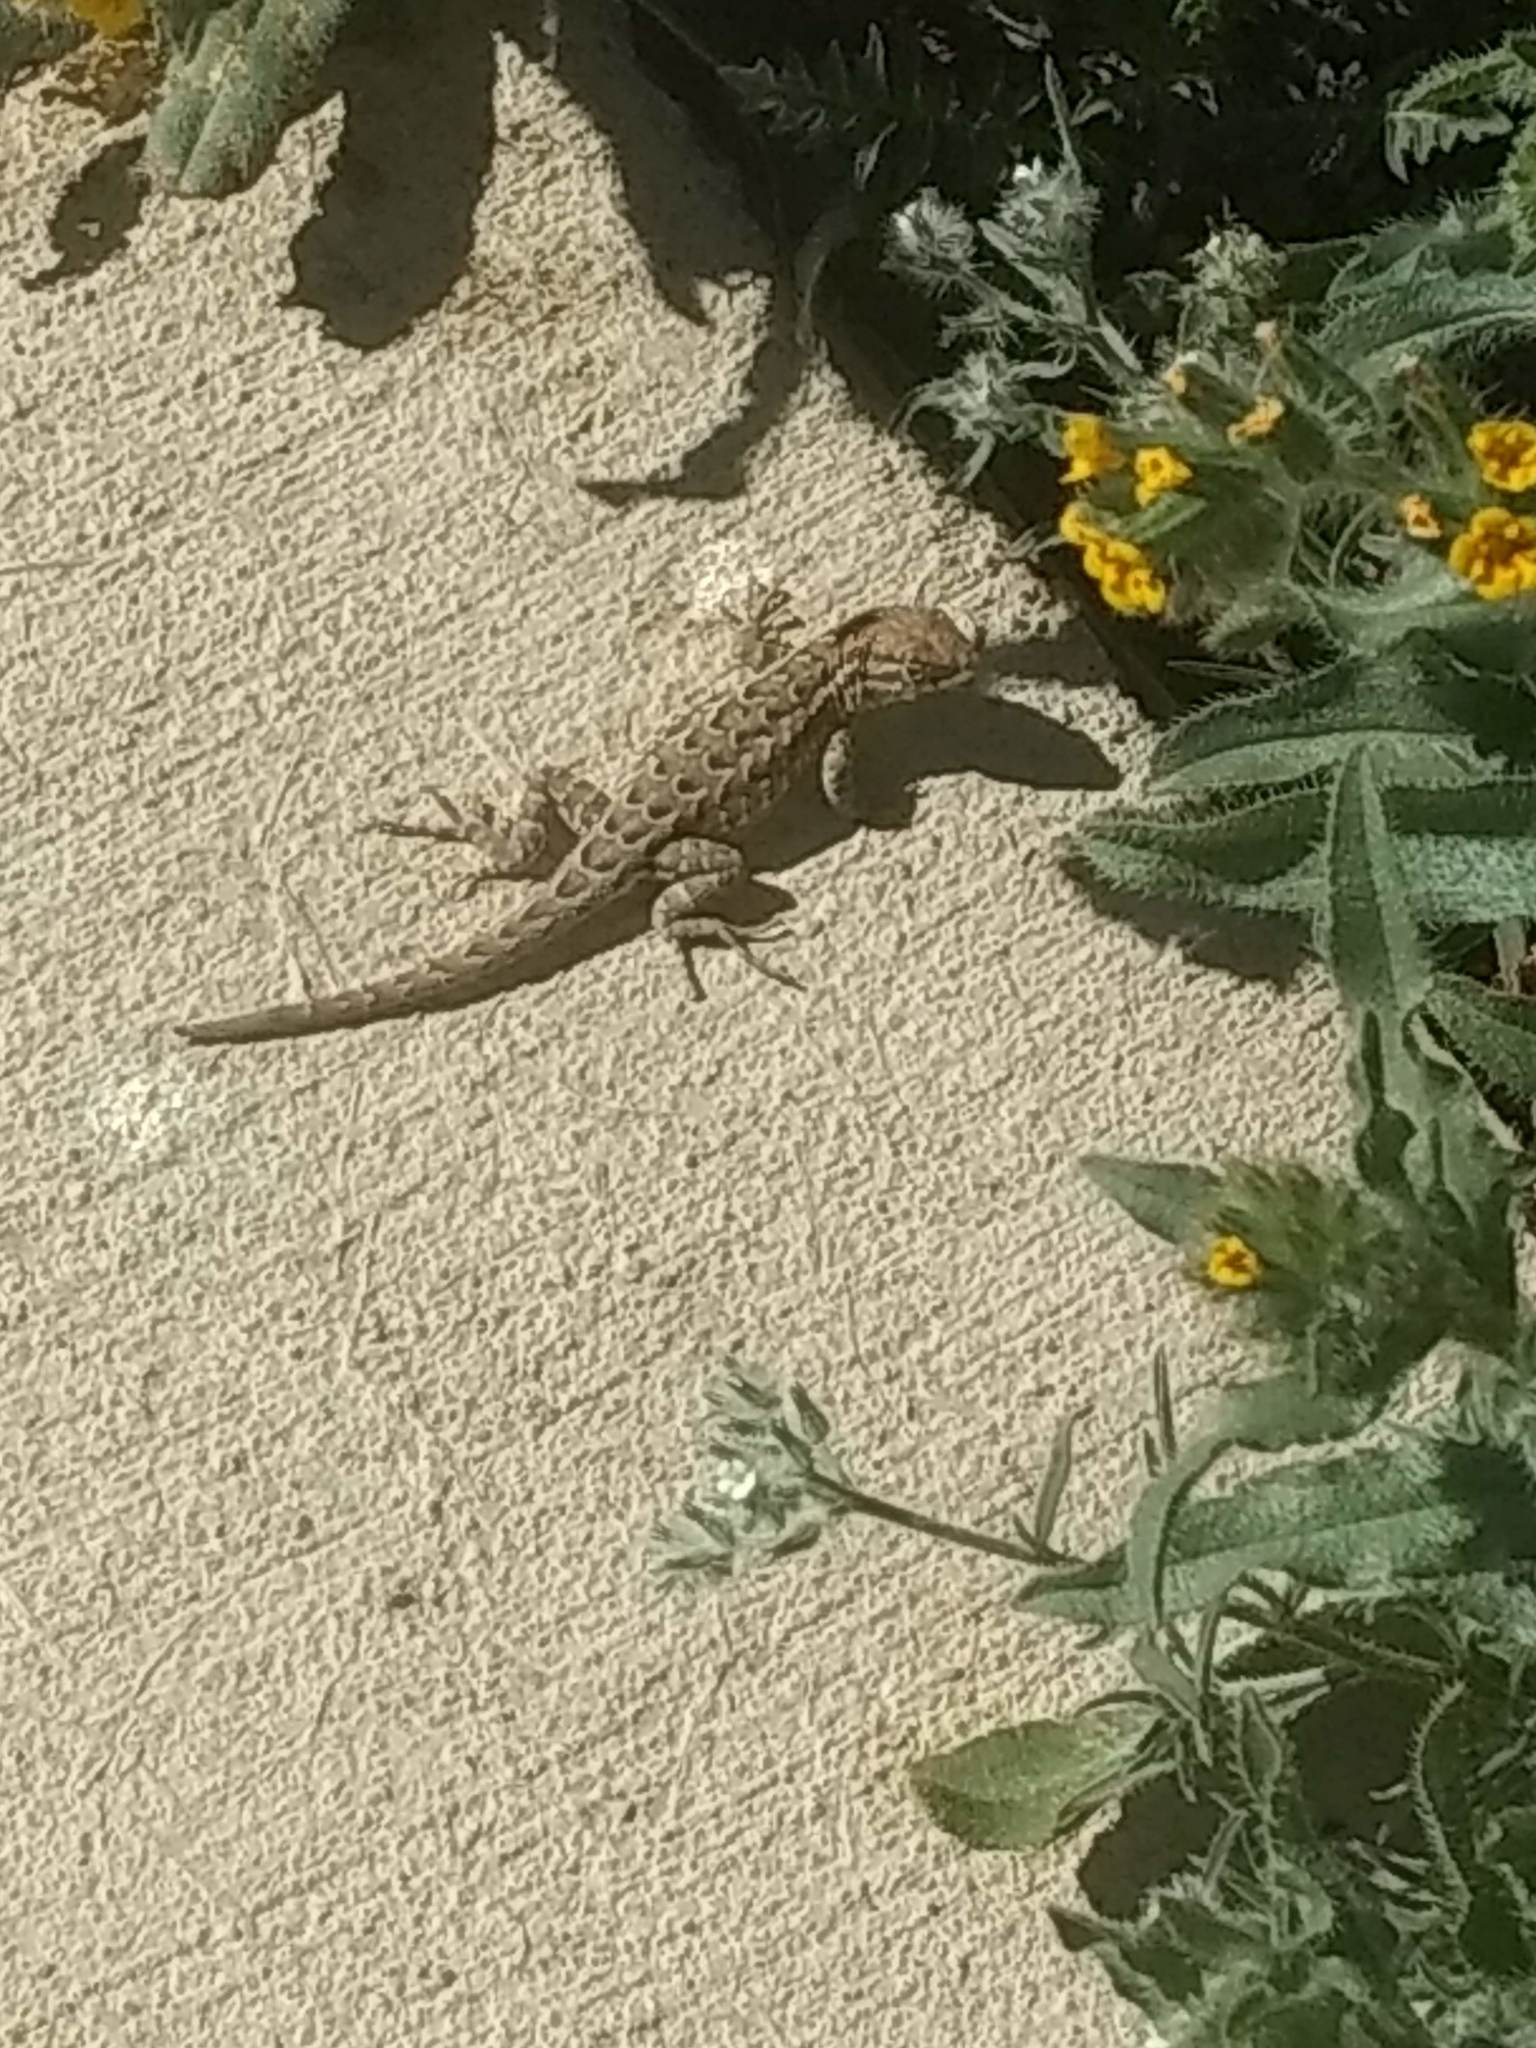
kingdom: Animalia
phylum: Chordata
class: Squamata
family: Phrynosomatidae
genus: Uta
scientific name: Uta stansburiana
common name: Side-blotched lizard
